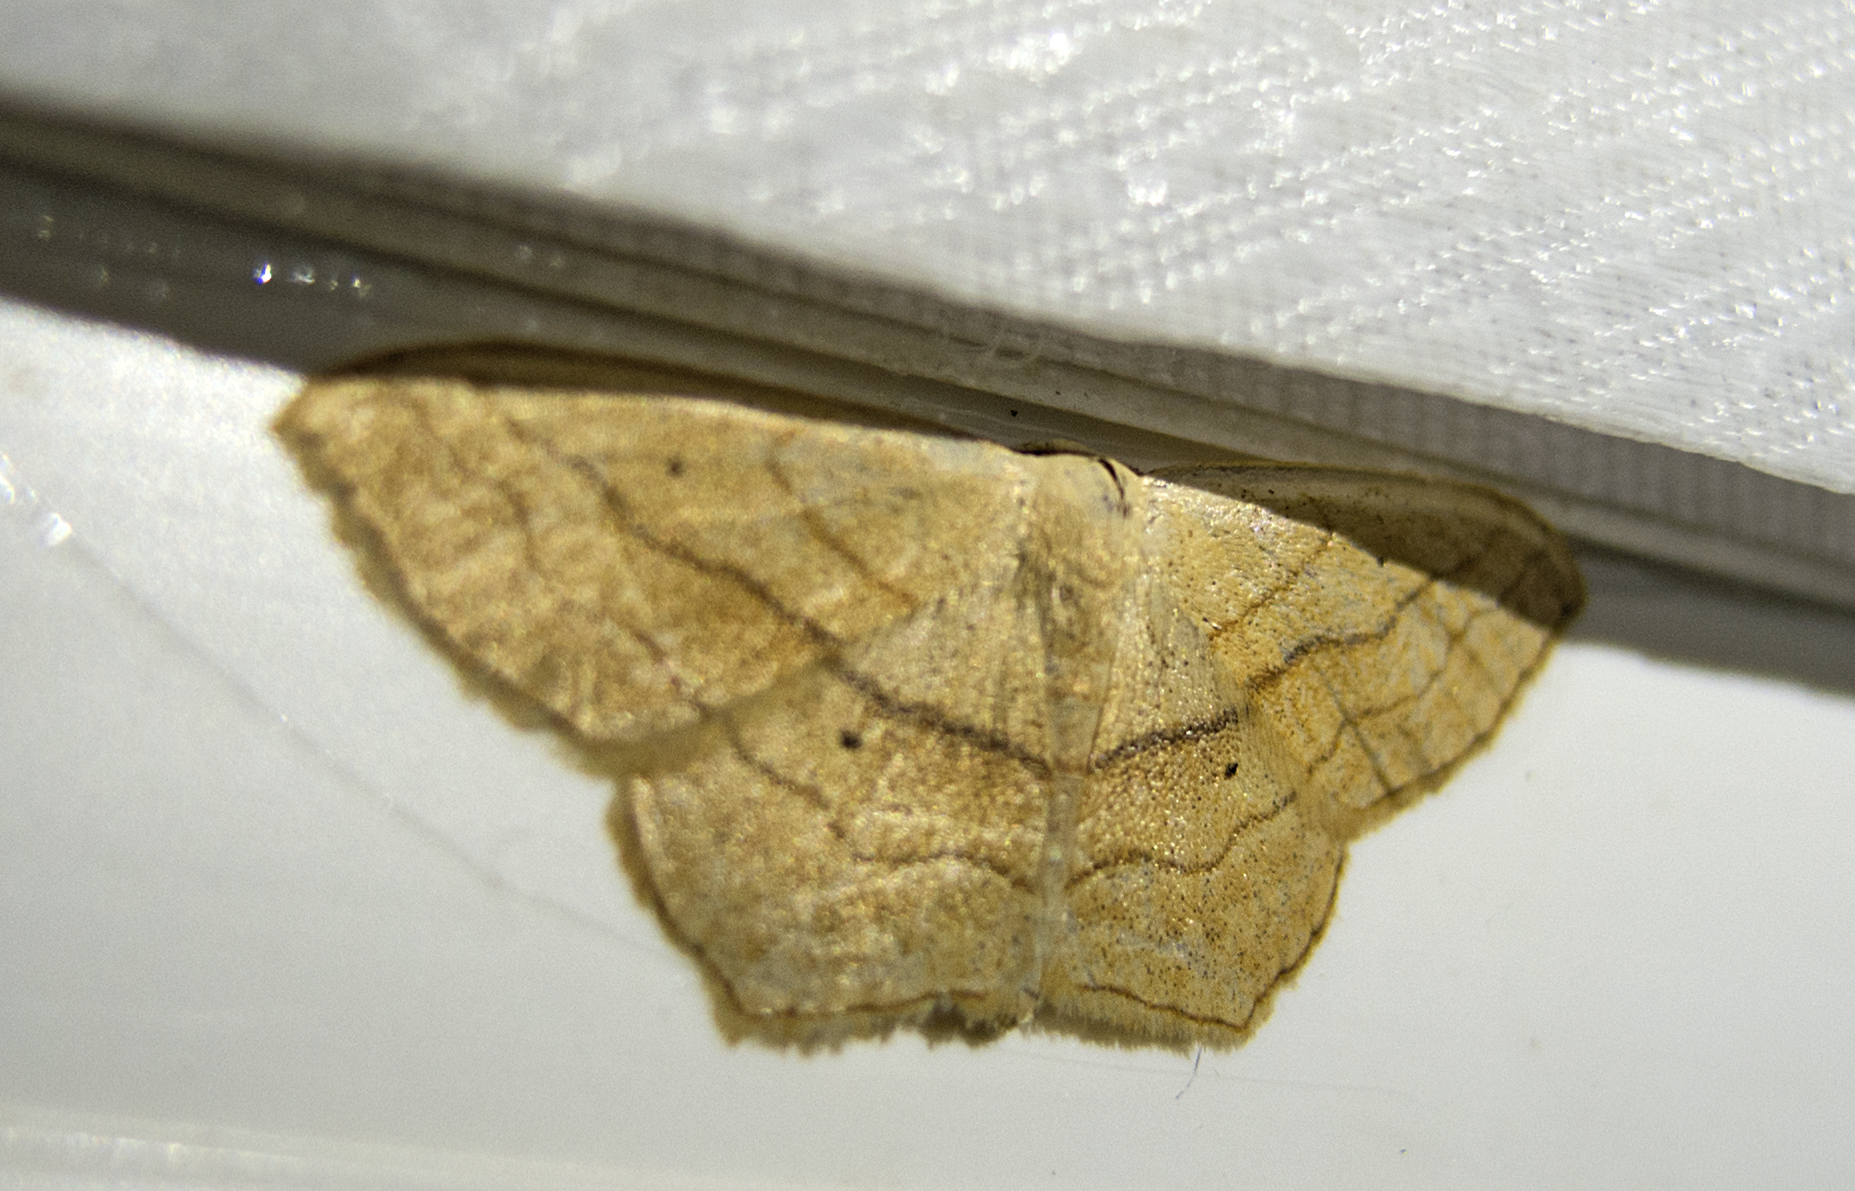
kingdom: Animalia
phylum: Arthropoda
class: Insecta
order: Lepidoptera
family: Geometridae
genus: Scopula
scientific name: Scopula imitaria
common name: Small blood-vein
